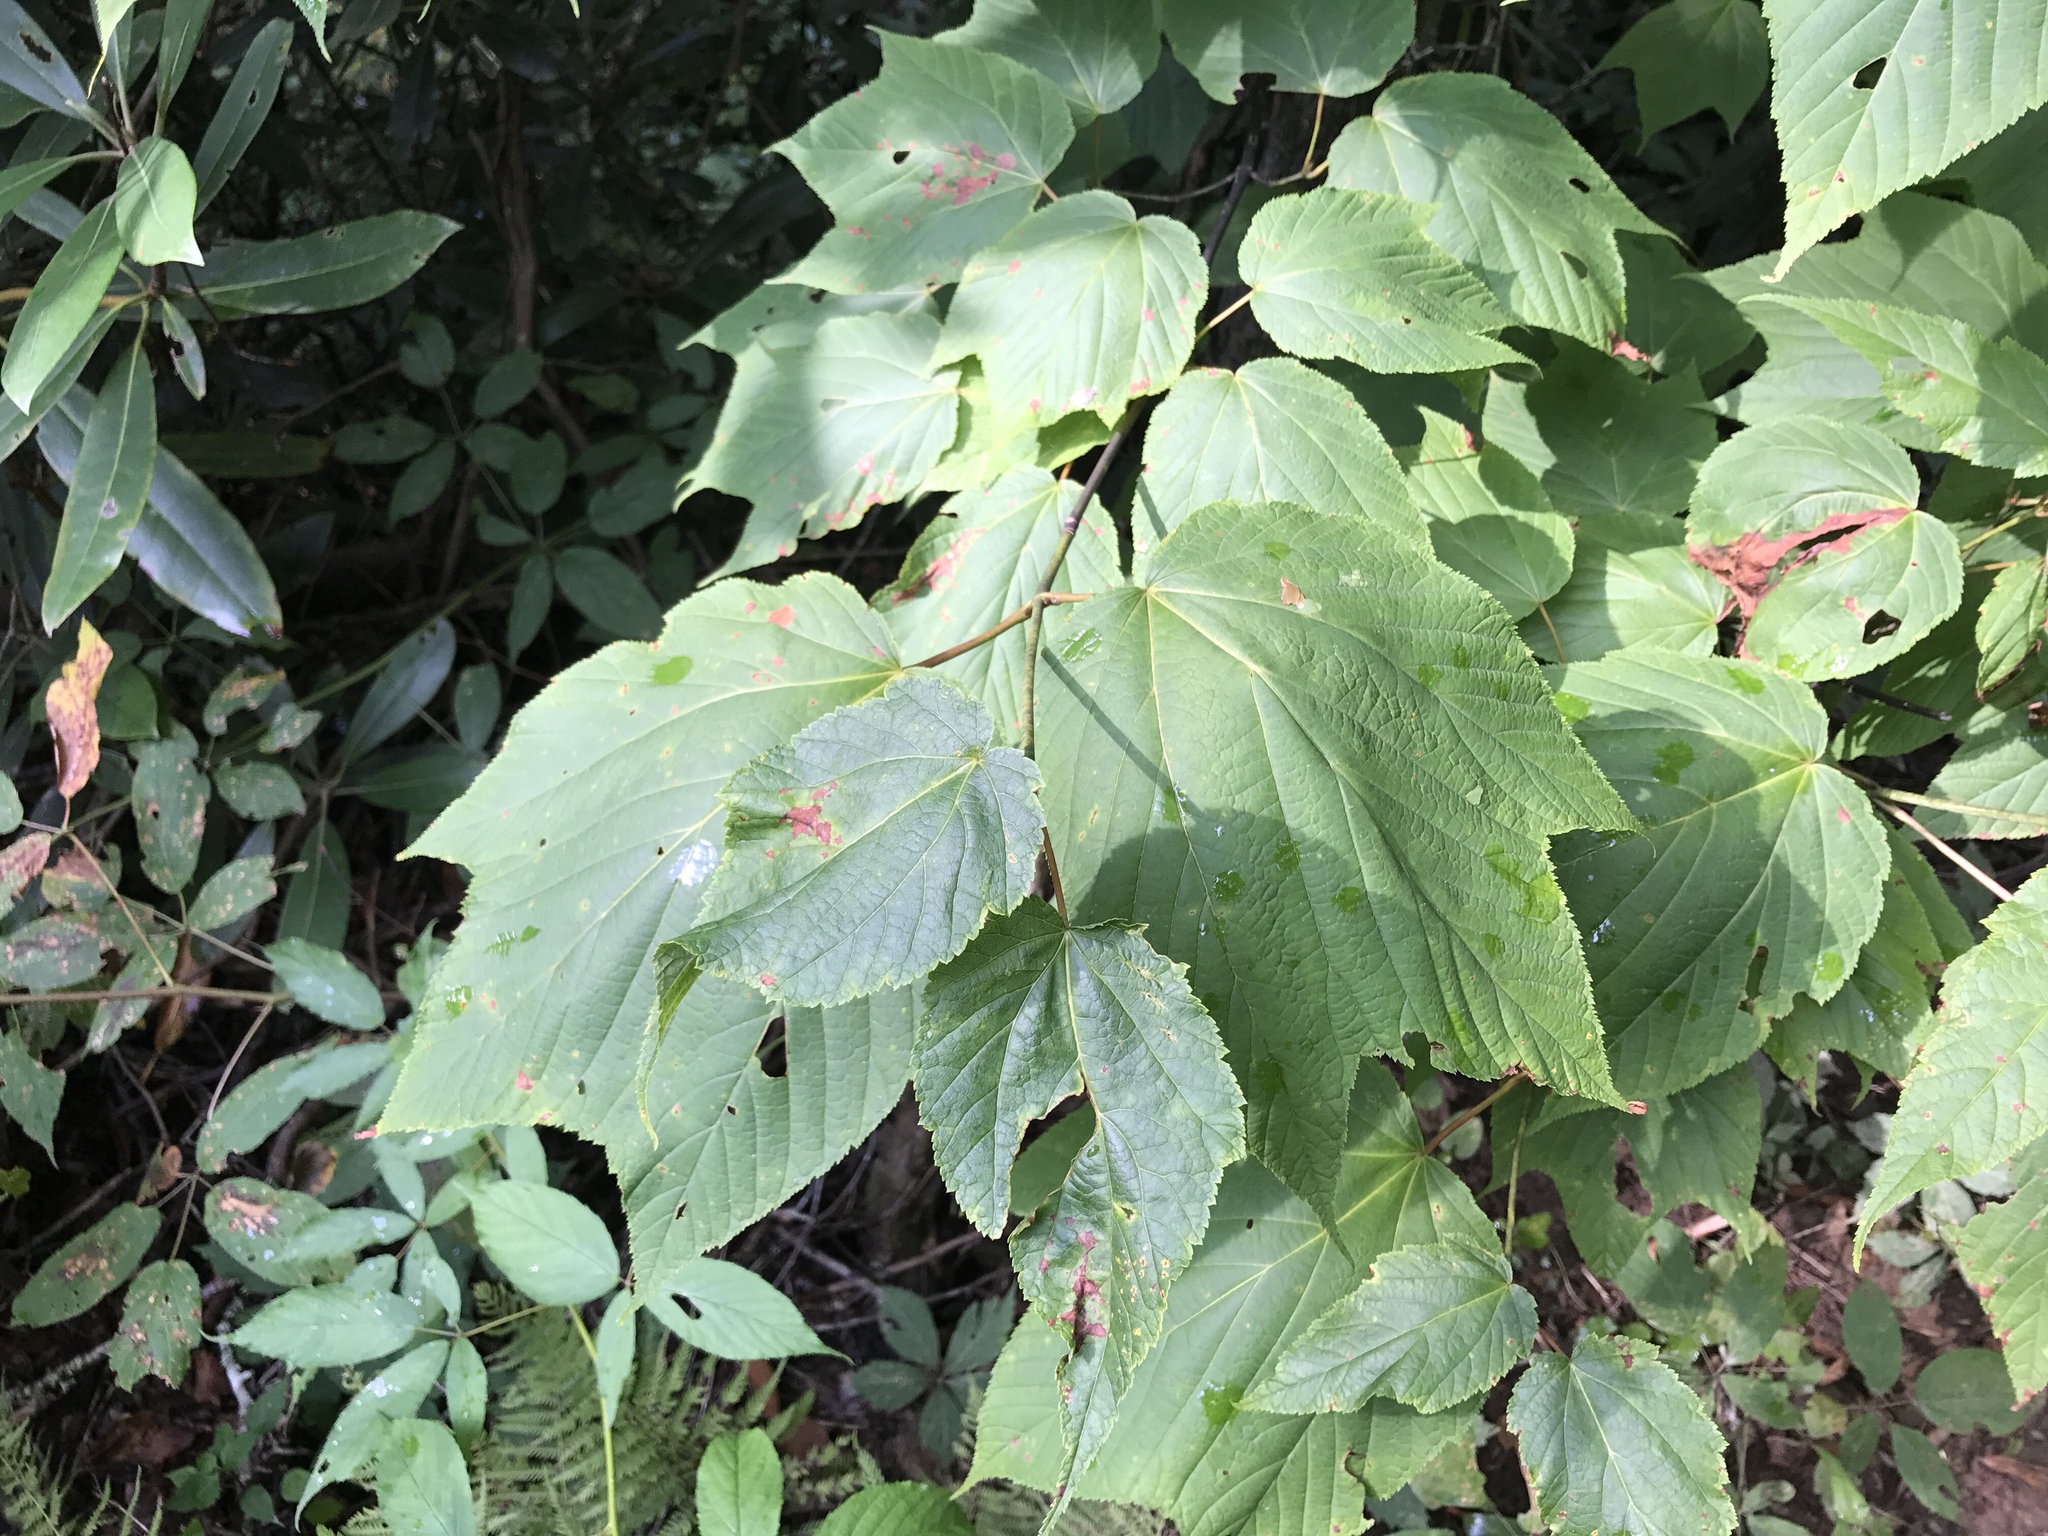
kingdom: Plantae
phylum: Tracheophyta
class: Magnoliopsida
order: Sapindales
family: Sapindaceae
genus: Acer
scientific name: Acer pensylvanicum
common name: Moosewood
